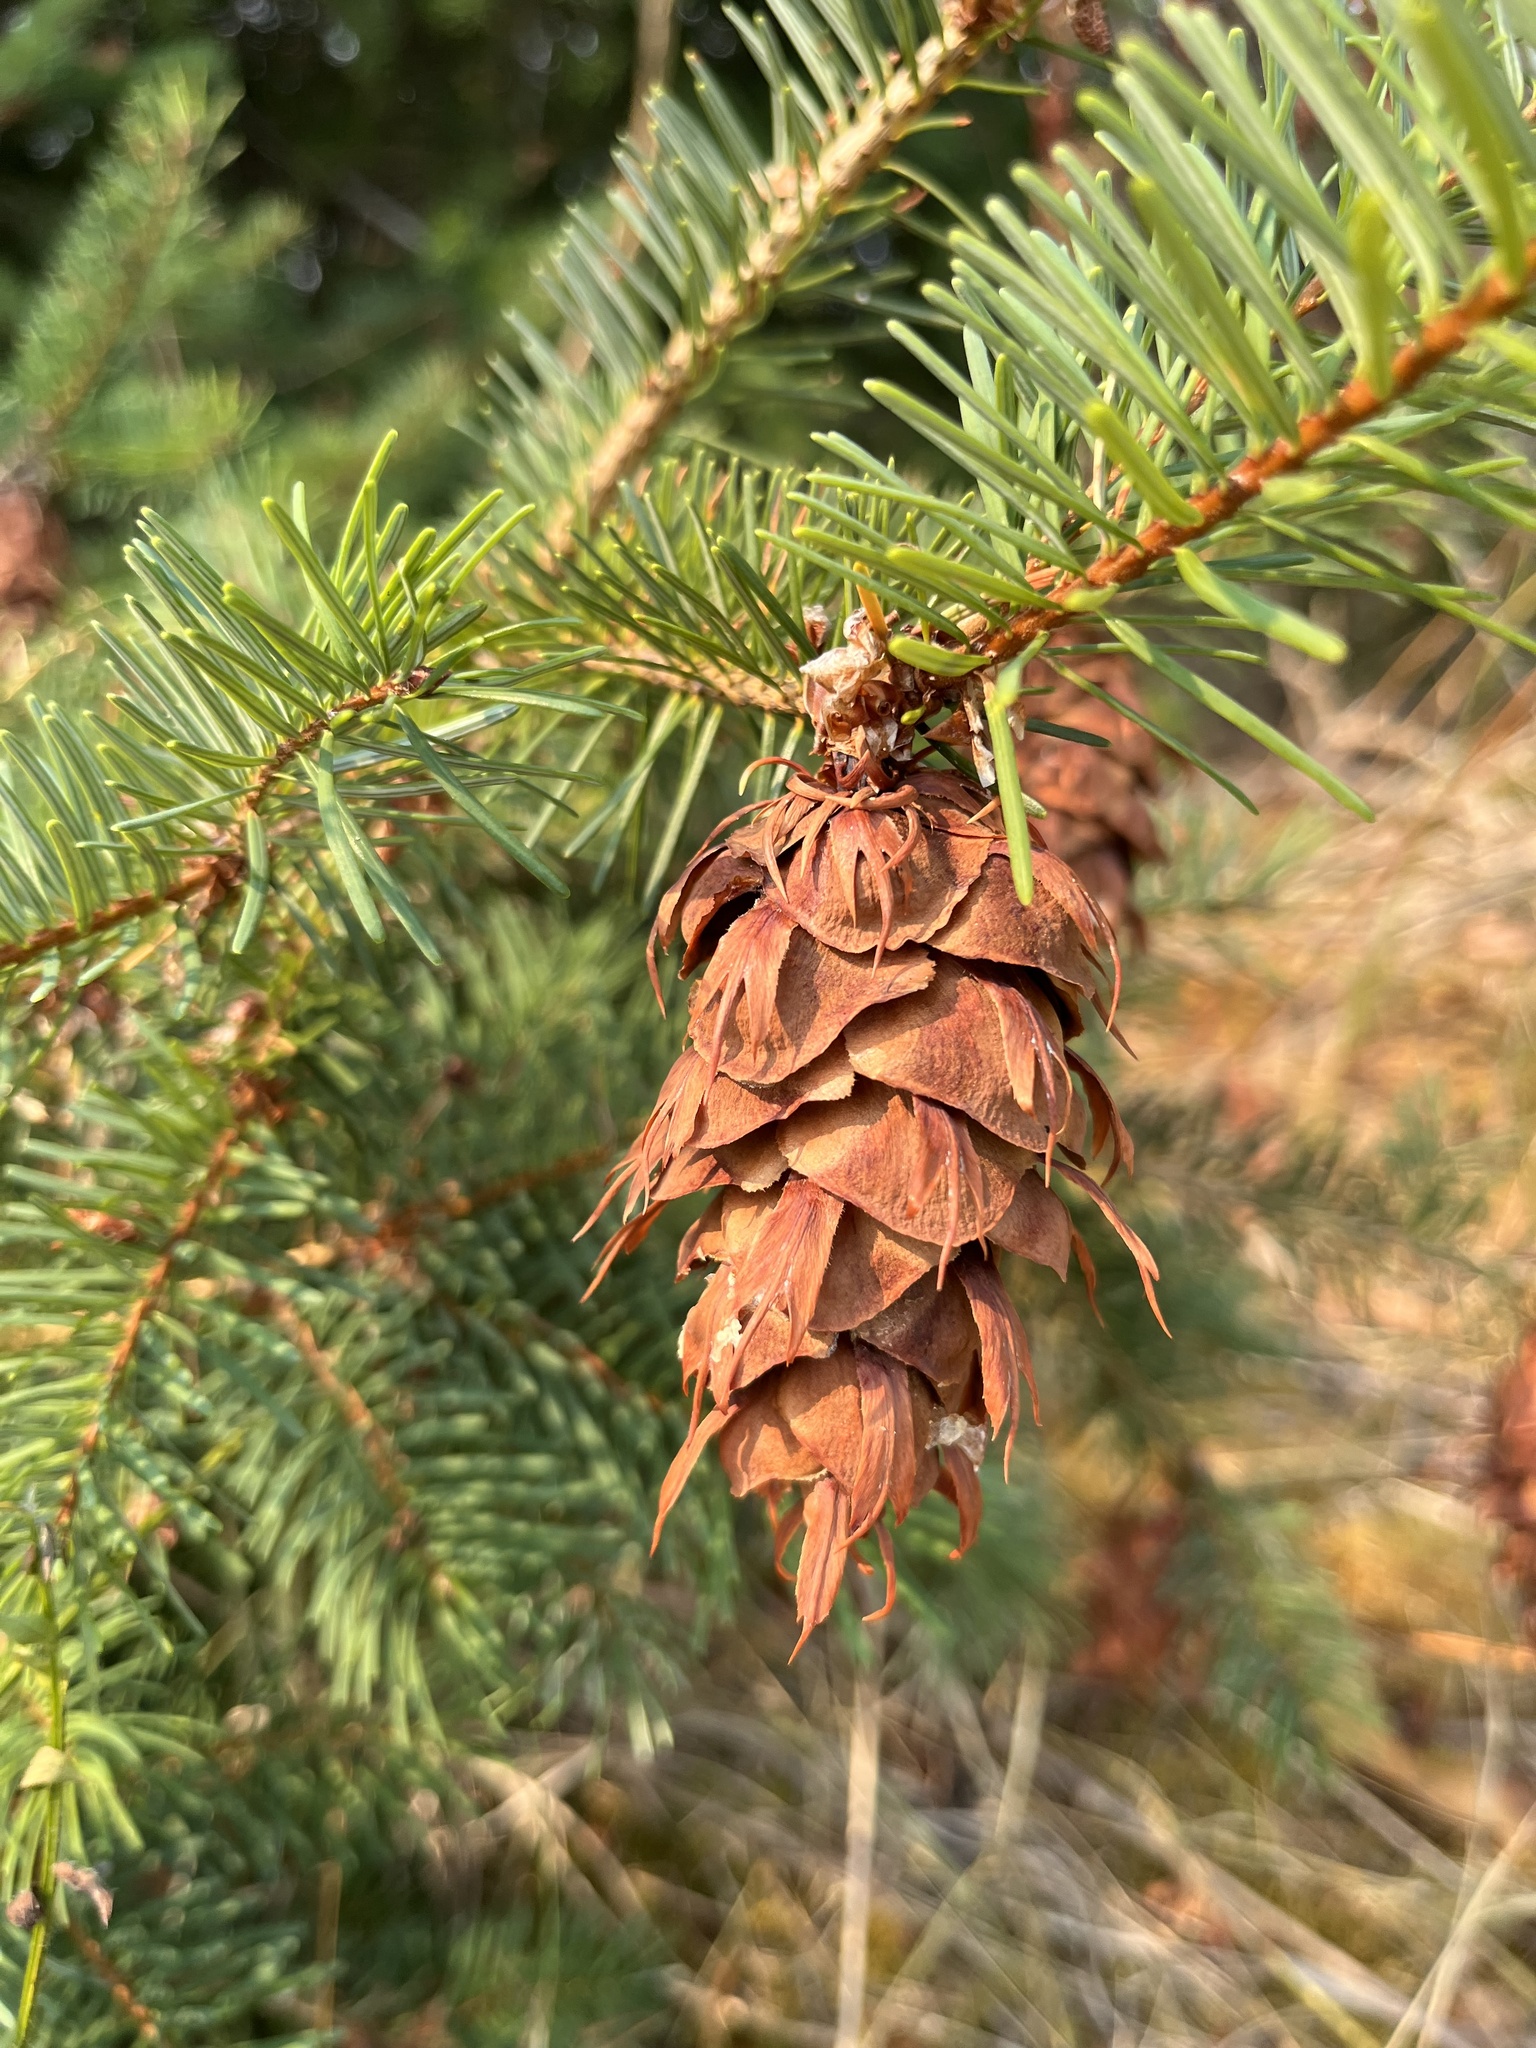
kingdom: Plantae
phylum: Tracheophyta
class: Pinopsida
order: Pinales
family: Pinaceae
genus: Pseudotsuga
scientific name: Pseudotsuga menziesii
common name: Douglas fir
